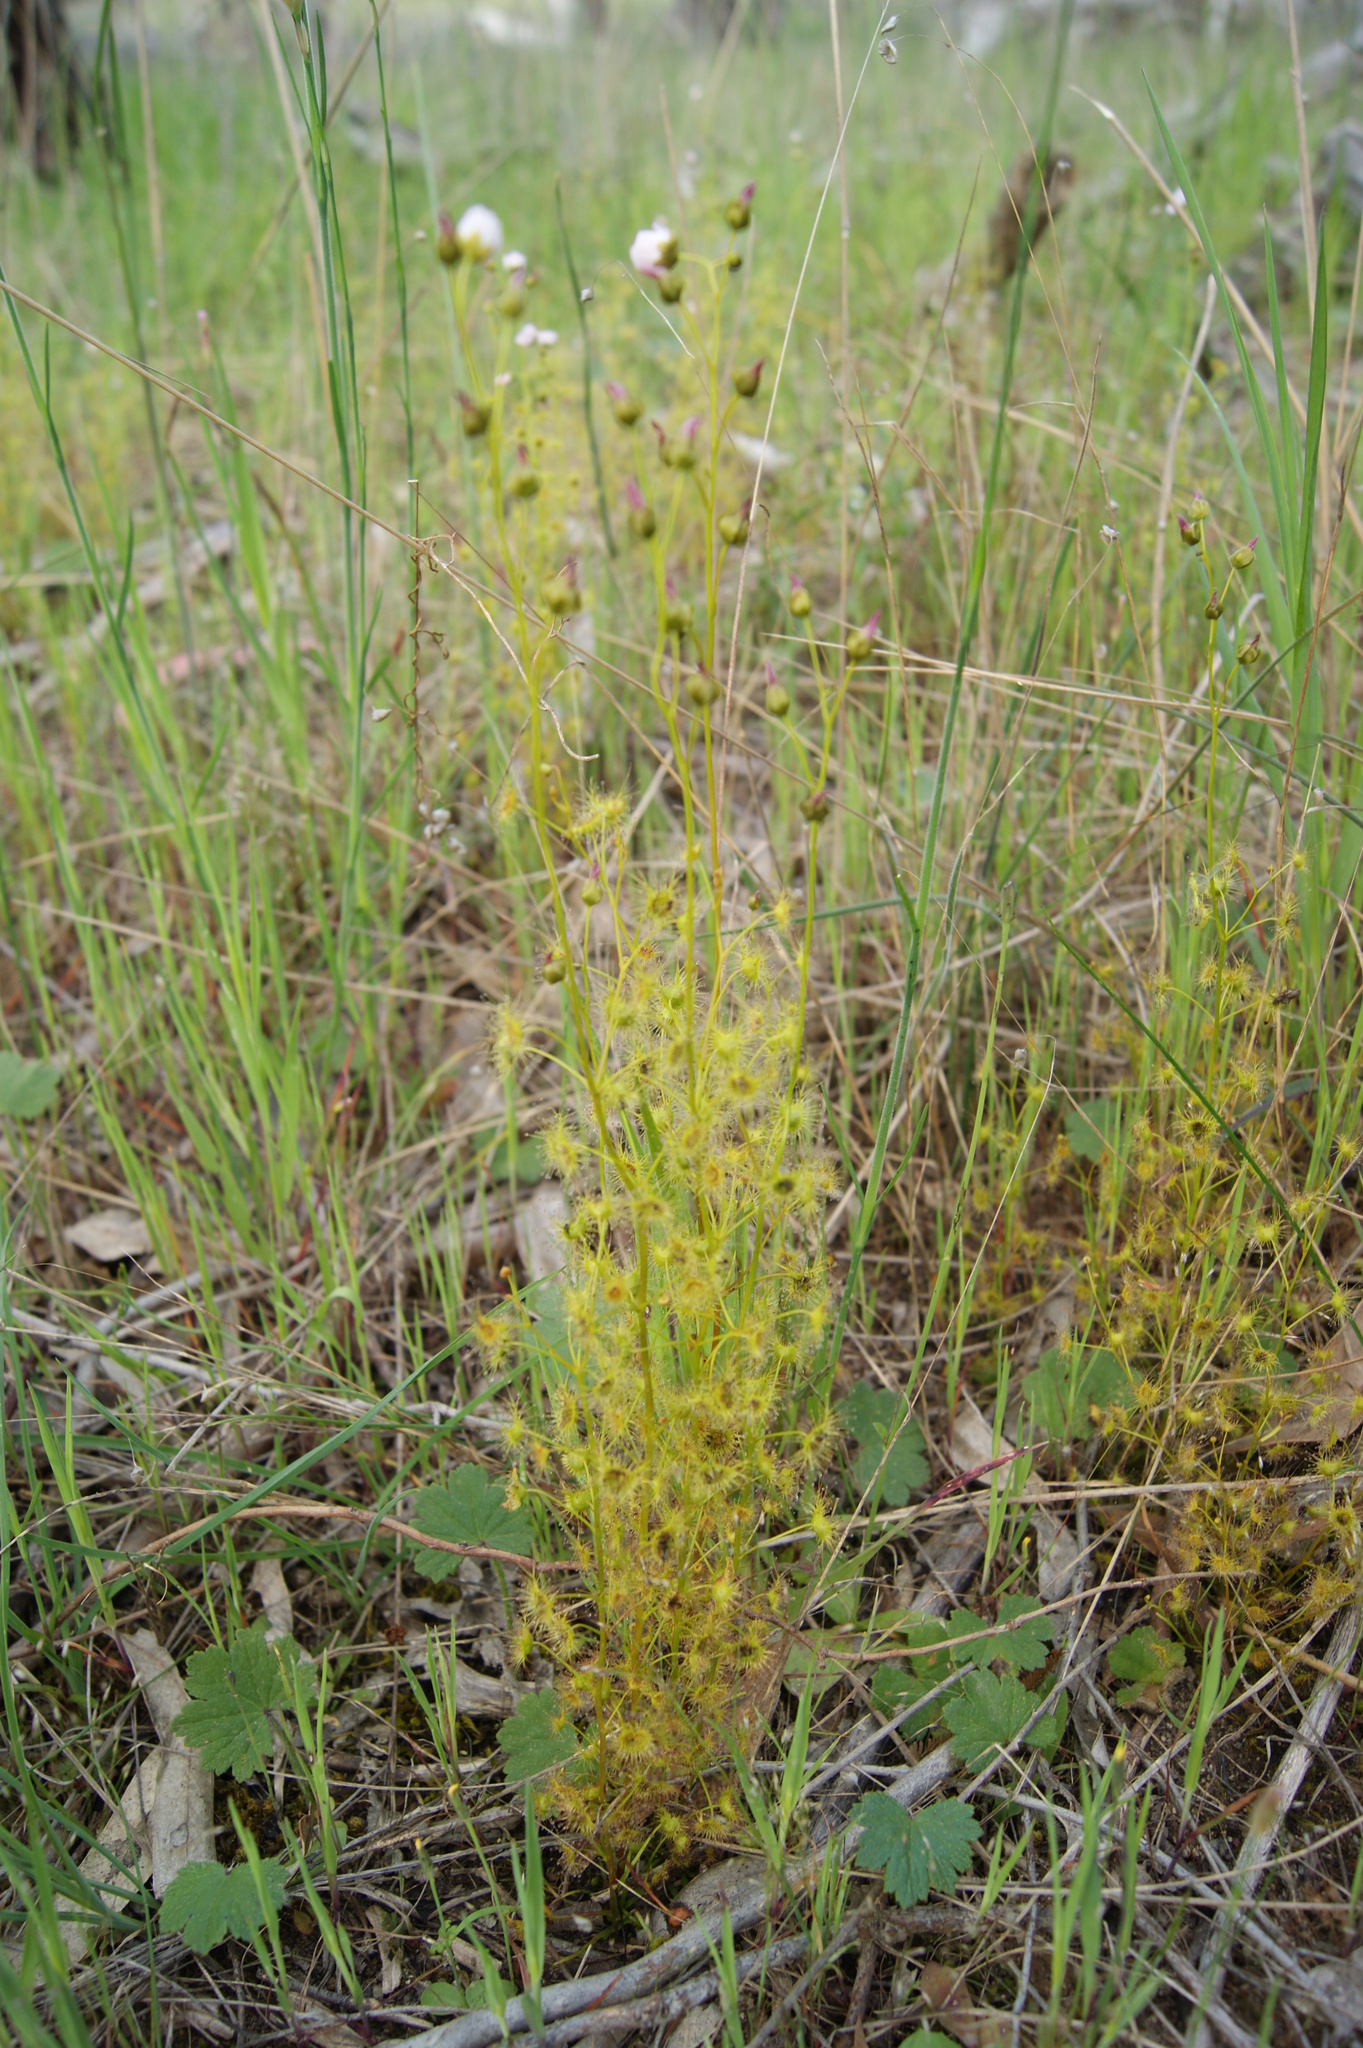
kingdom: Plantae
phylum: Tracheophyta
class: Magnoliopsida
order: Caryophyllales
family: Droseraceae
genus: Drosera
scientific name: Drosera peltata
